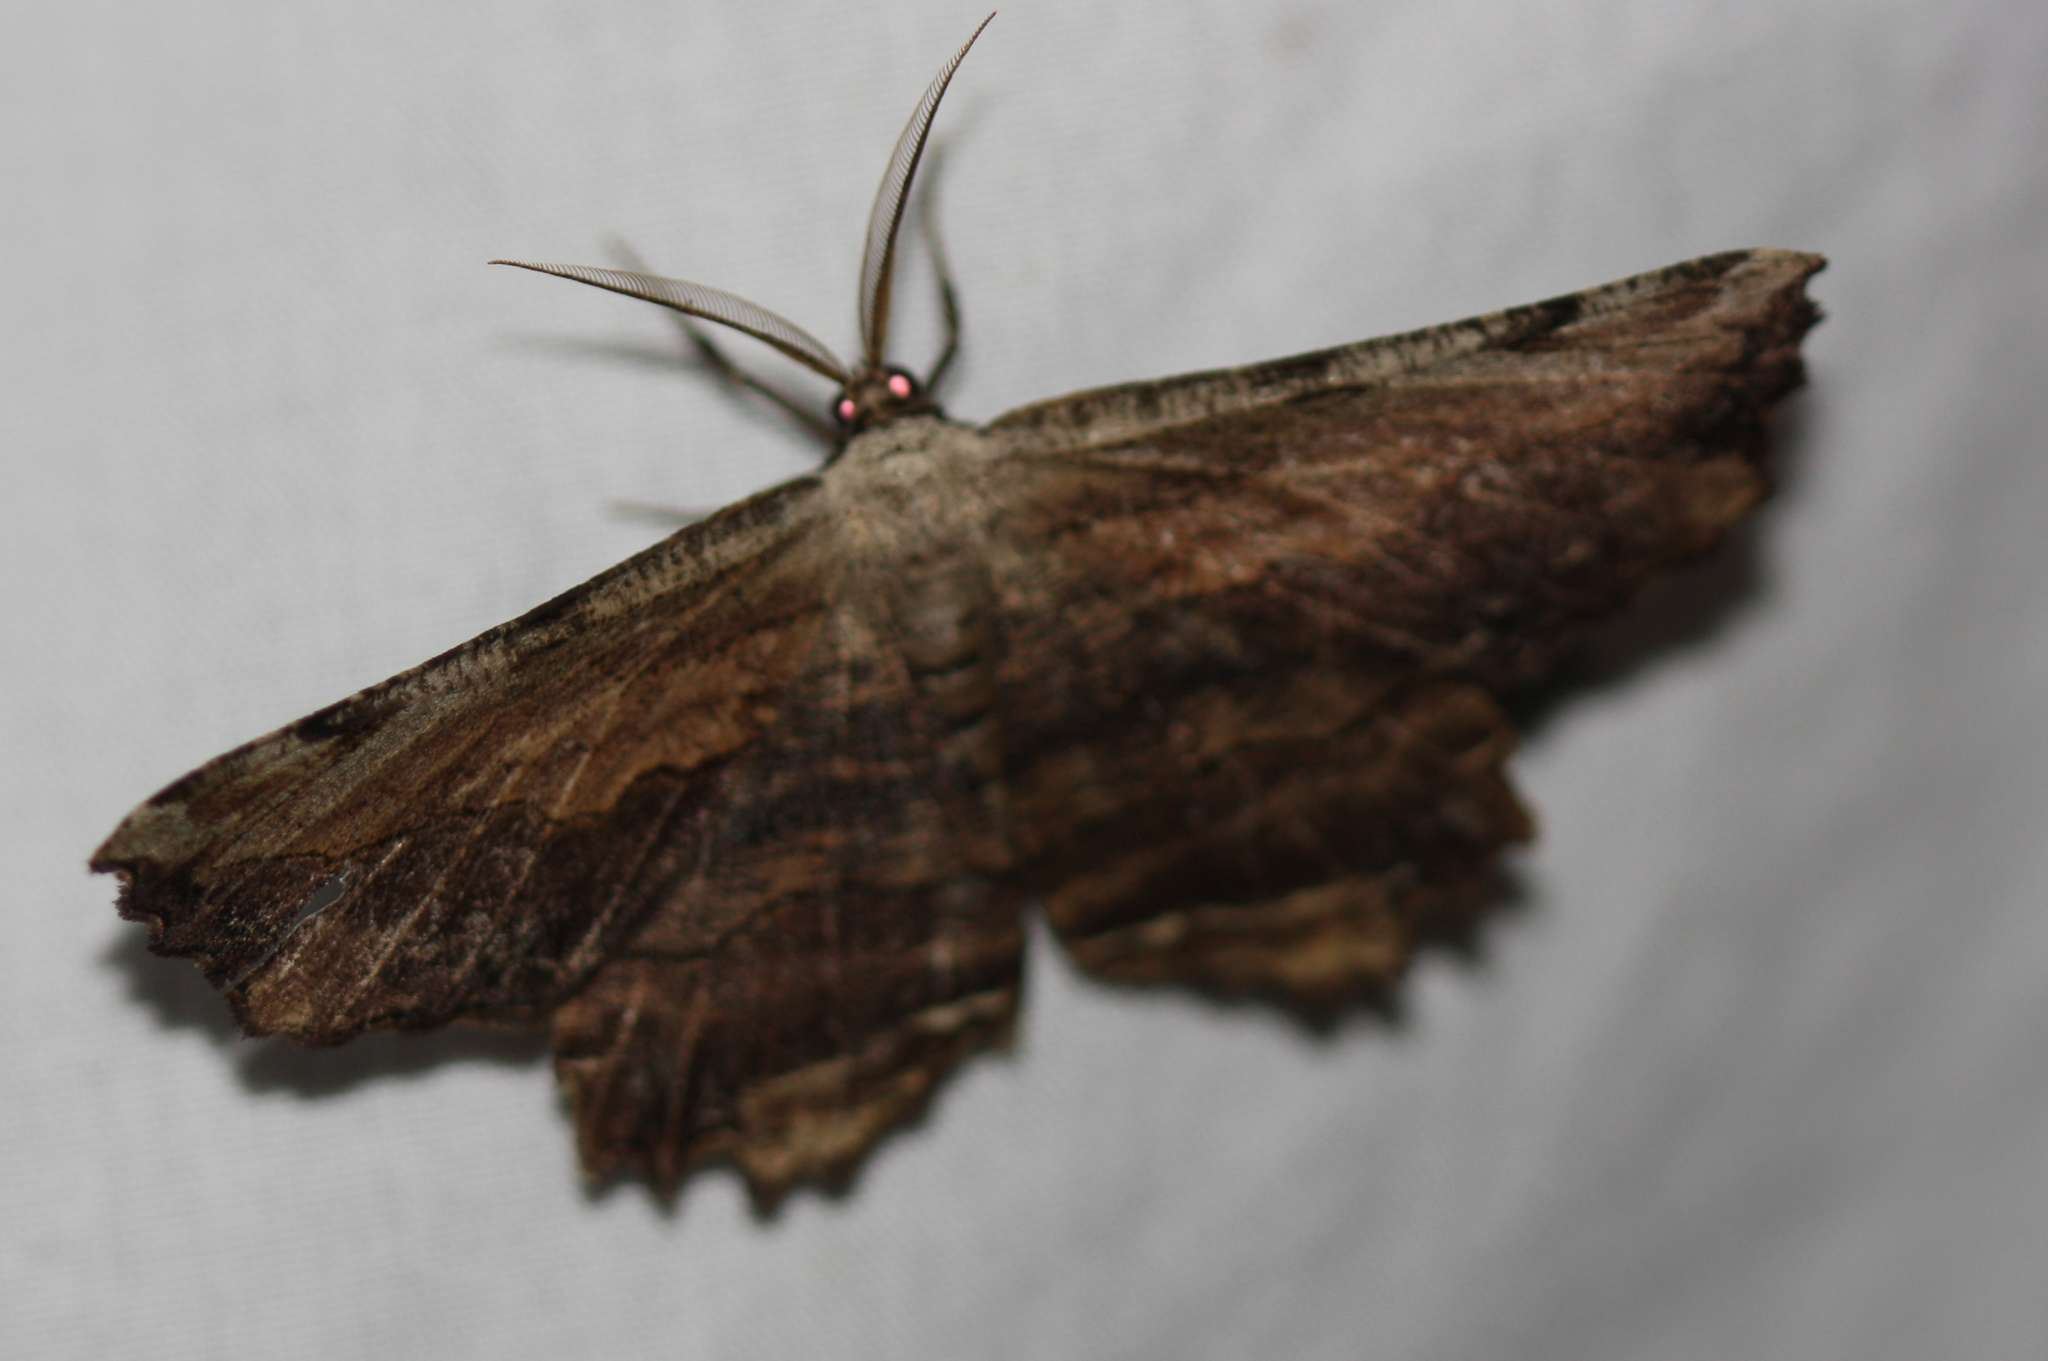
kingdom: Animalia
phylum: Arthropoda
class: Insecta
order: Lepidoptera
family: Geometridae
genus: Lytrosis
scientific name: Lytrosis unitaria
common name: Common lytrosis
